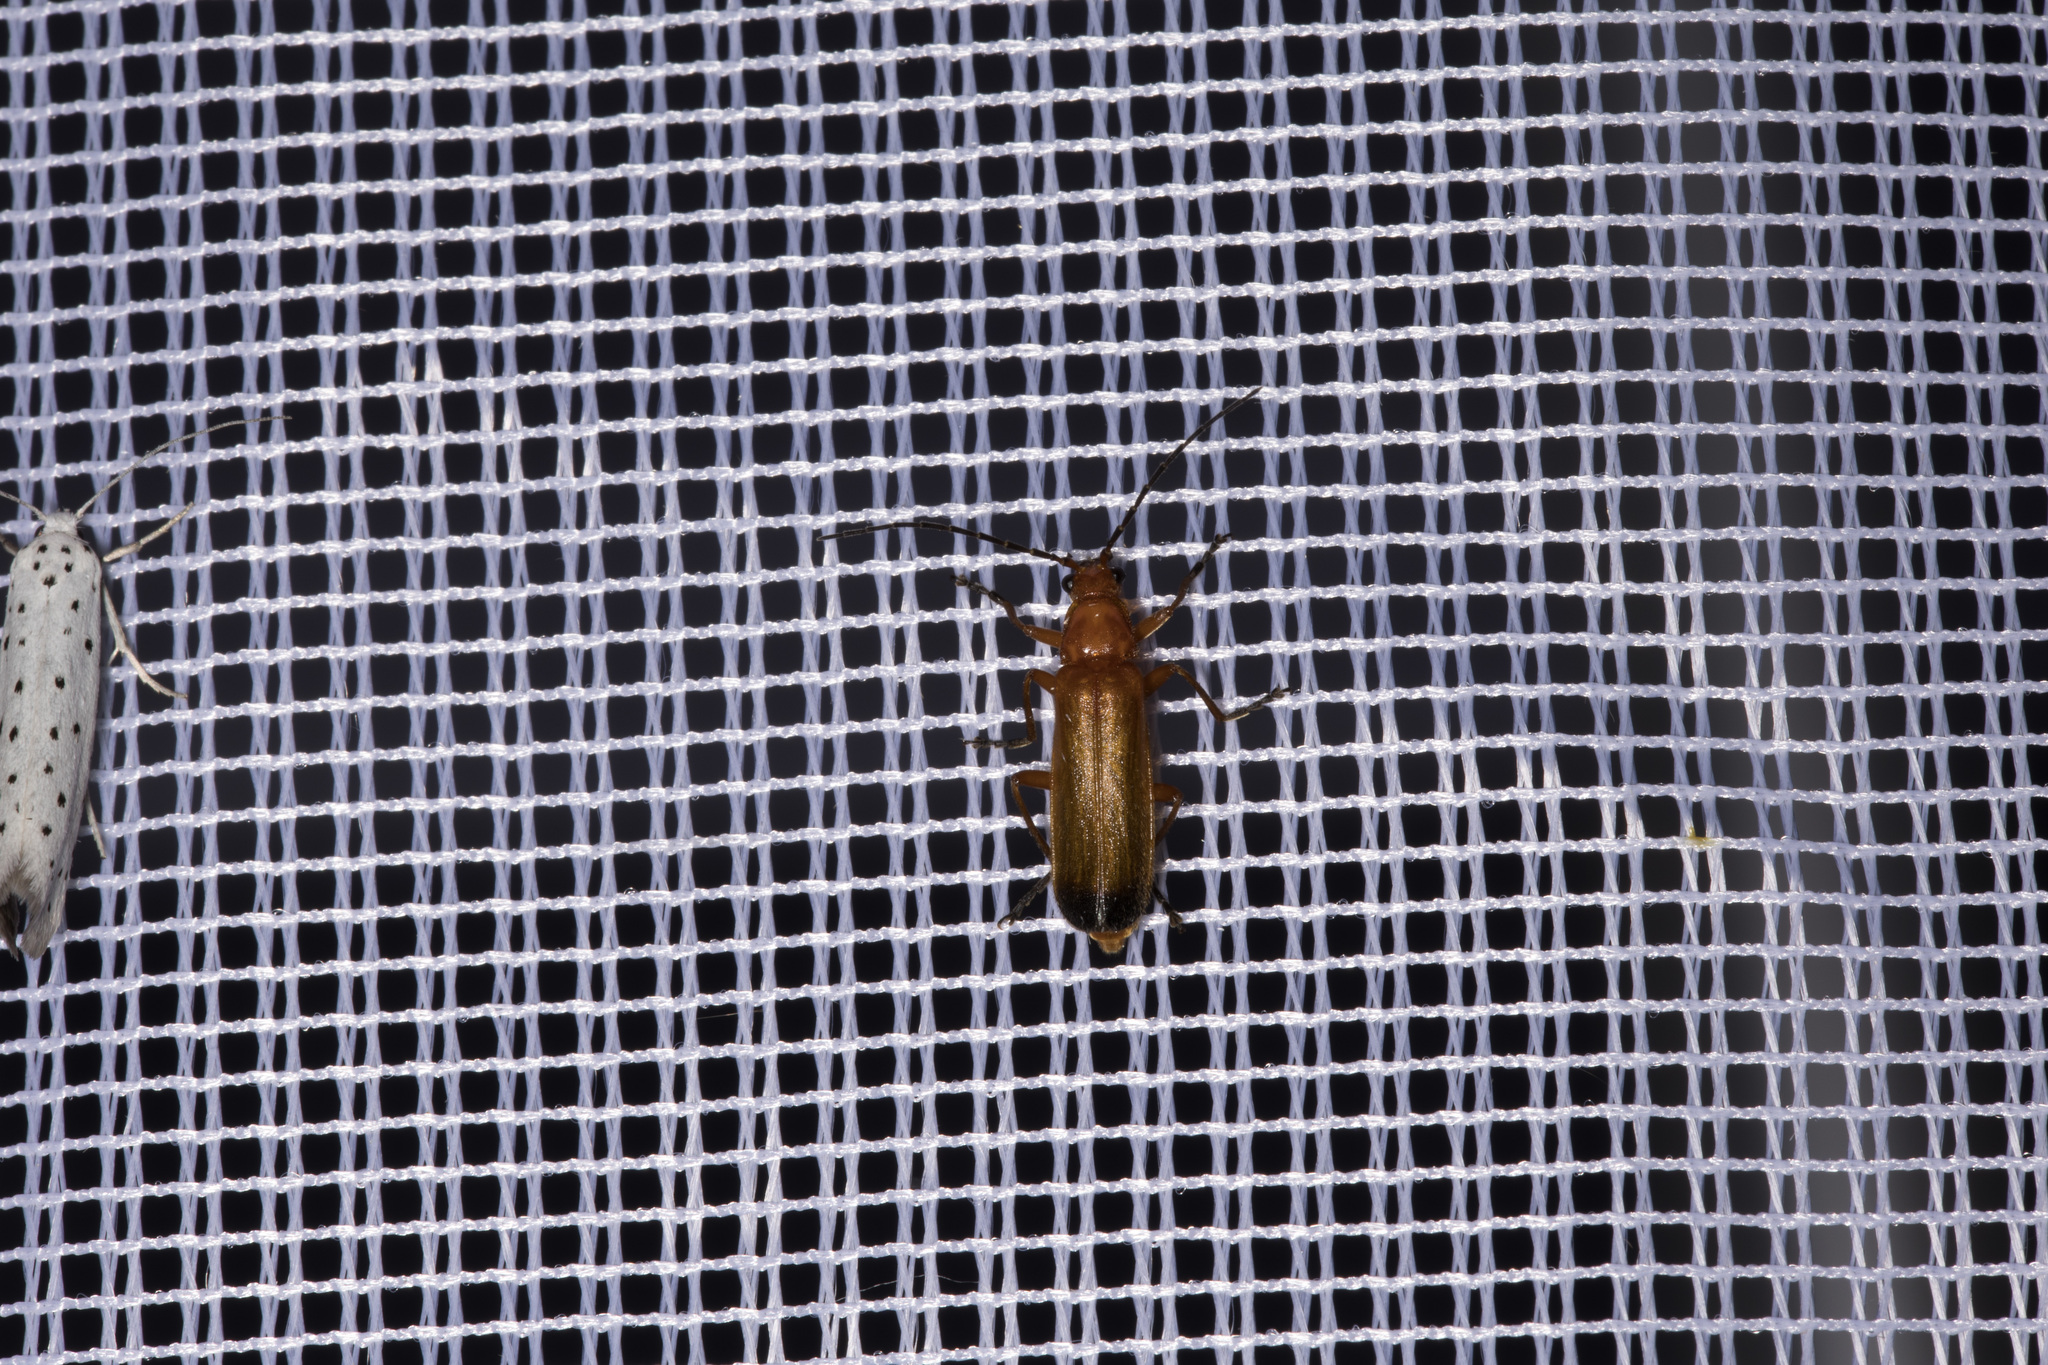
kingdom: Animalia
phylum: Arthropoda
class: Insecta
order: Coleoptera
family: Cantharidae
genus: Rhagonycha
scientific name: Rhagonycha fulva
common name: Common red soldier beetle
